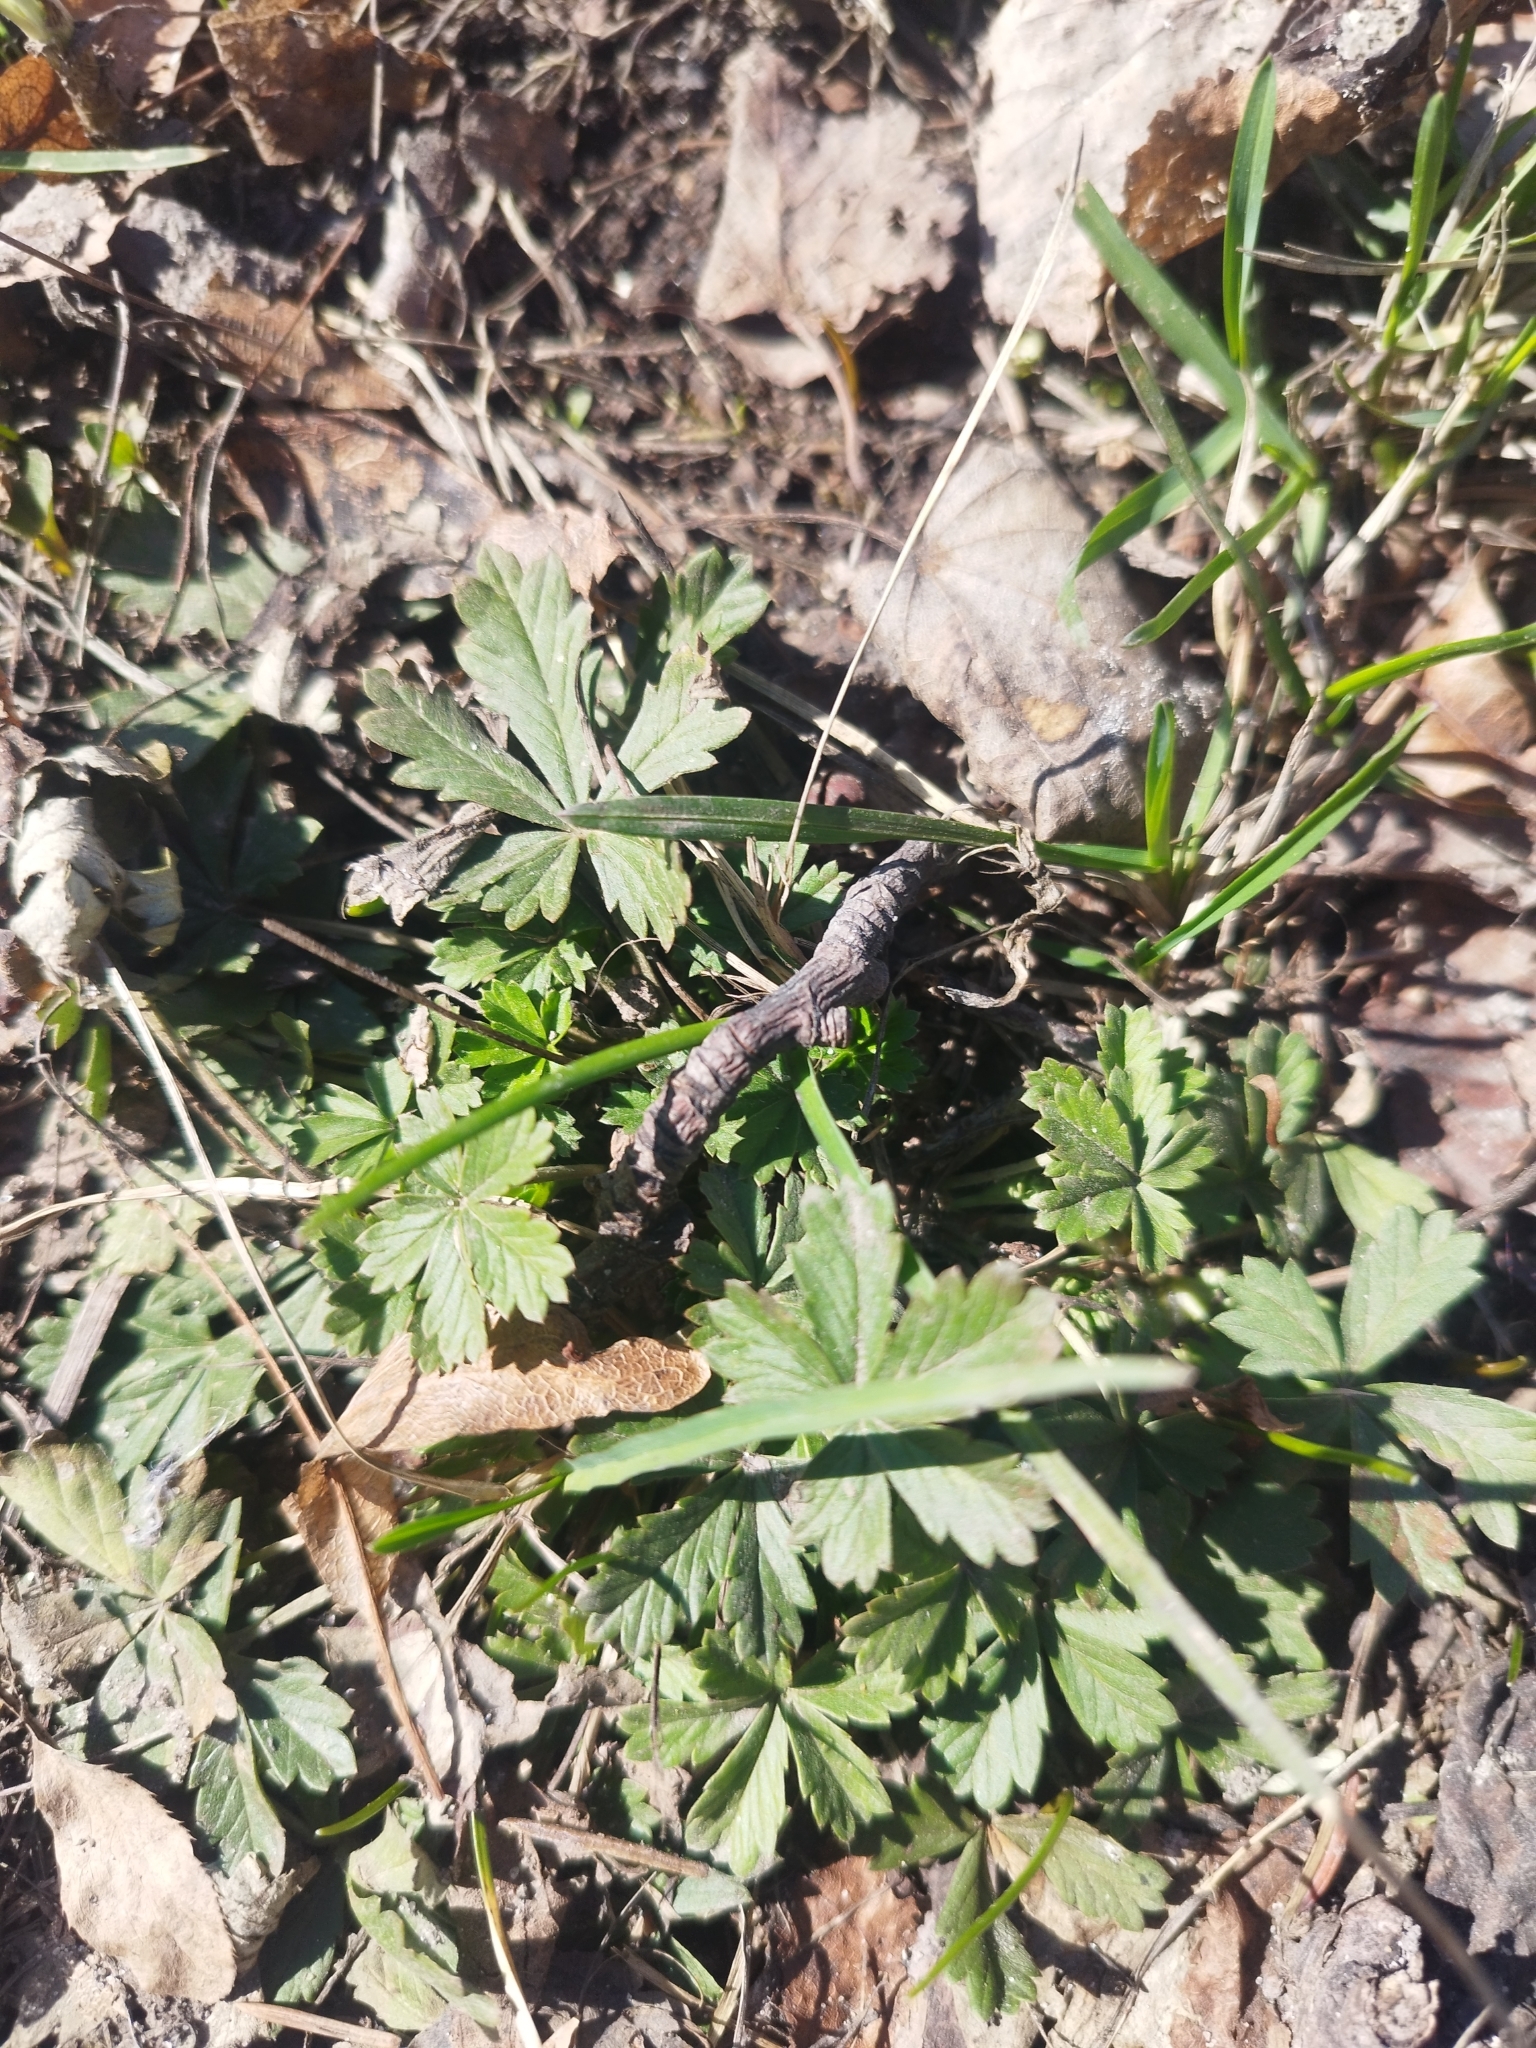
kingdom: Plantae
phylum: Tracheophyta
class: Magnoliopsida
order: Rosales
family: Rosaceae
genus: Potentilla
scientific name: Potentilla argentea
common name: Hoary cinquefoil
